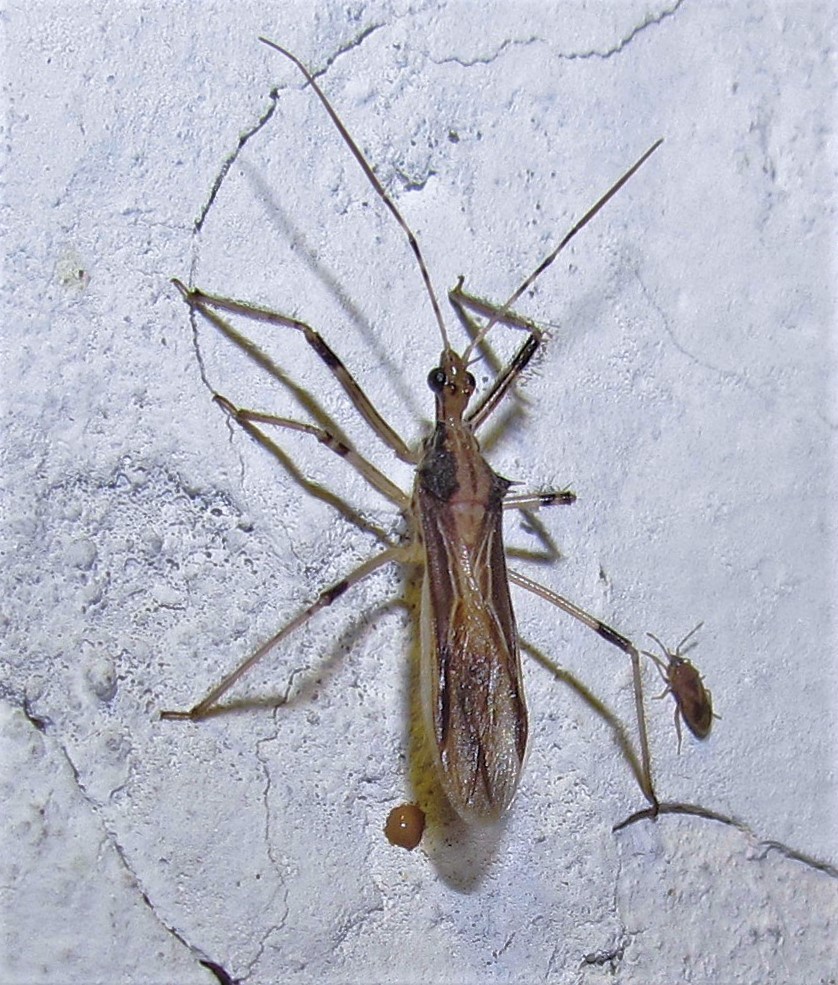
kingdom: Animalia
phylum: Arthropoda
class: Insecta
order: Hemiptera
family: Reduviidae
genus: Repipta
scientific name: Repipta argentinensis
